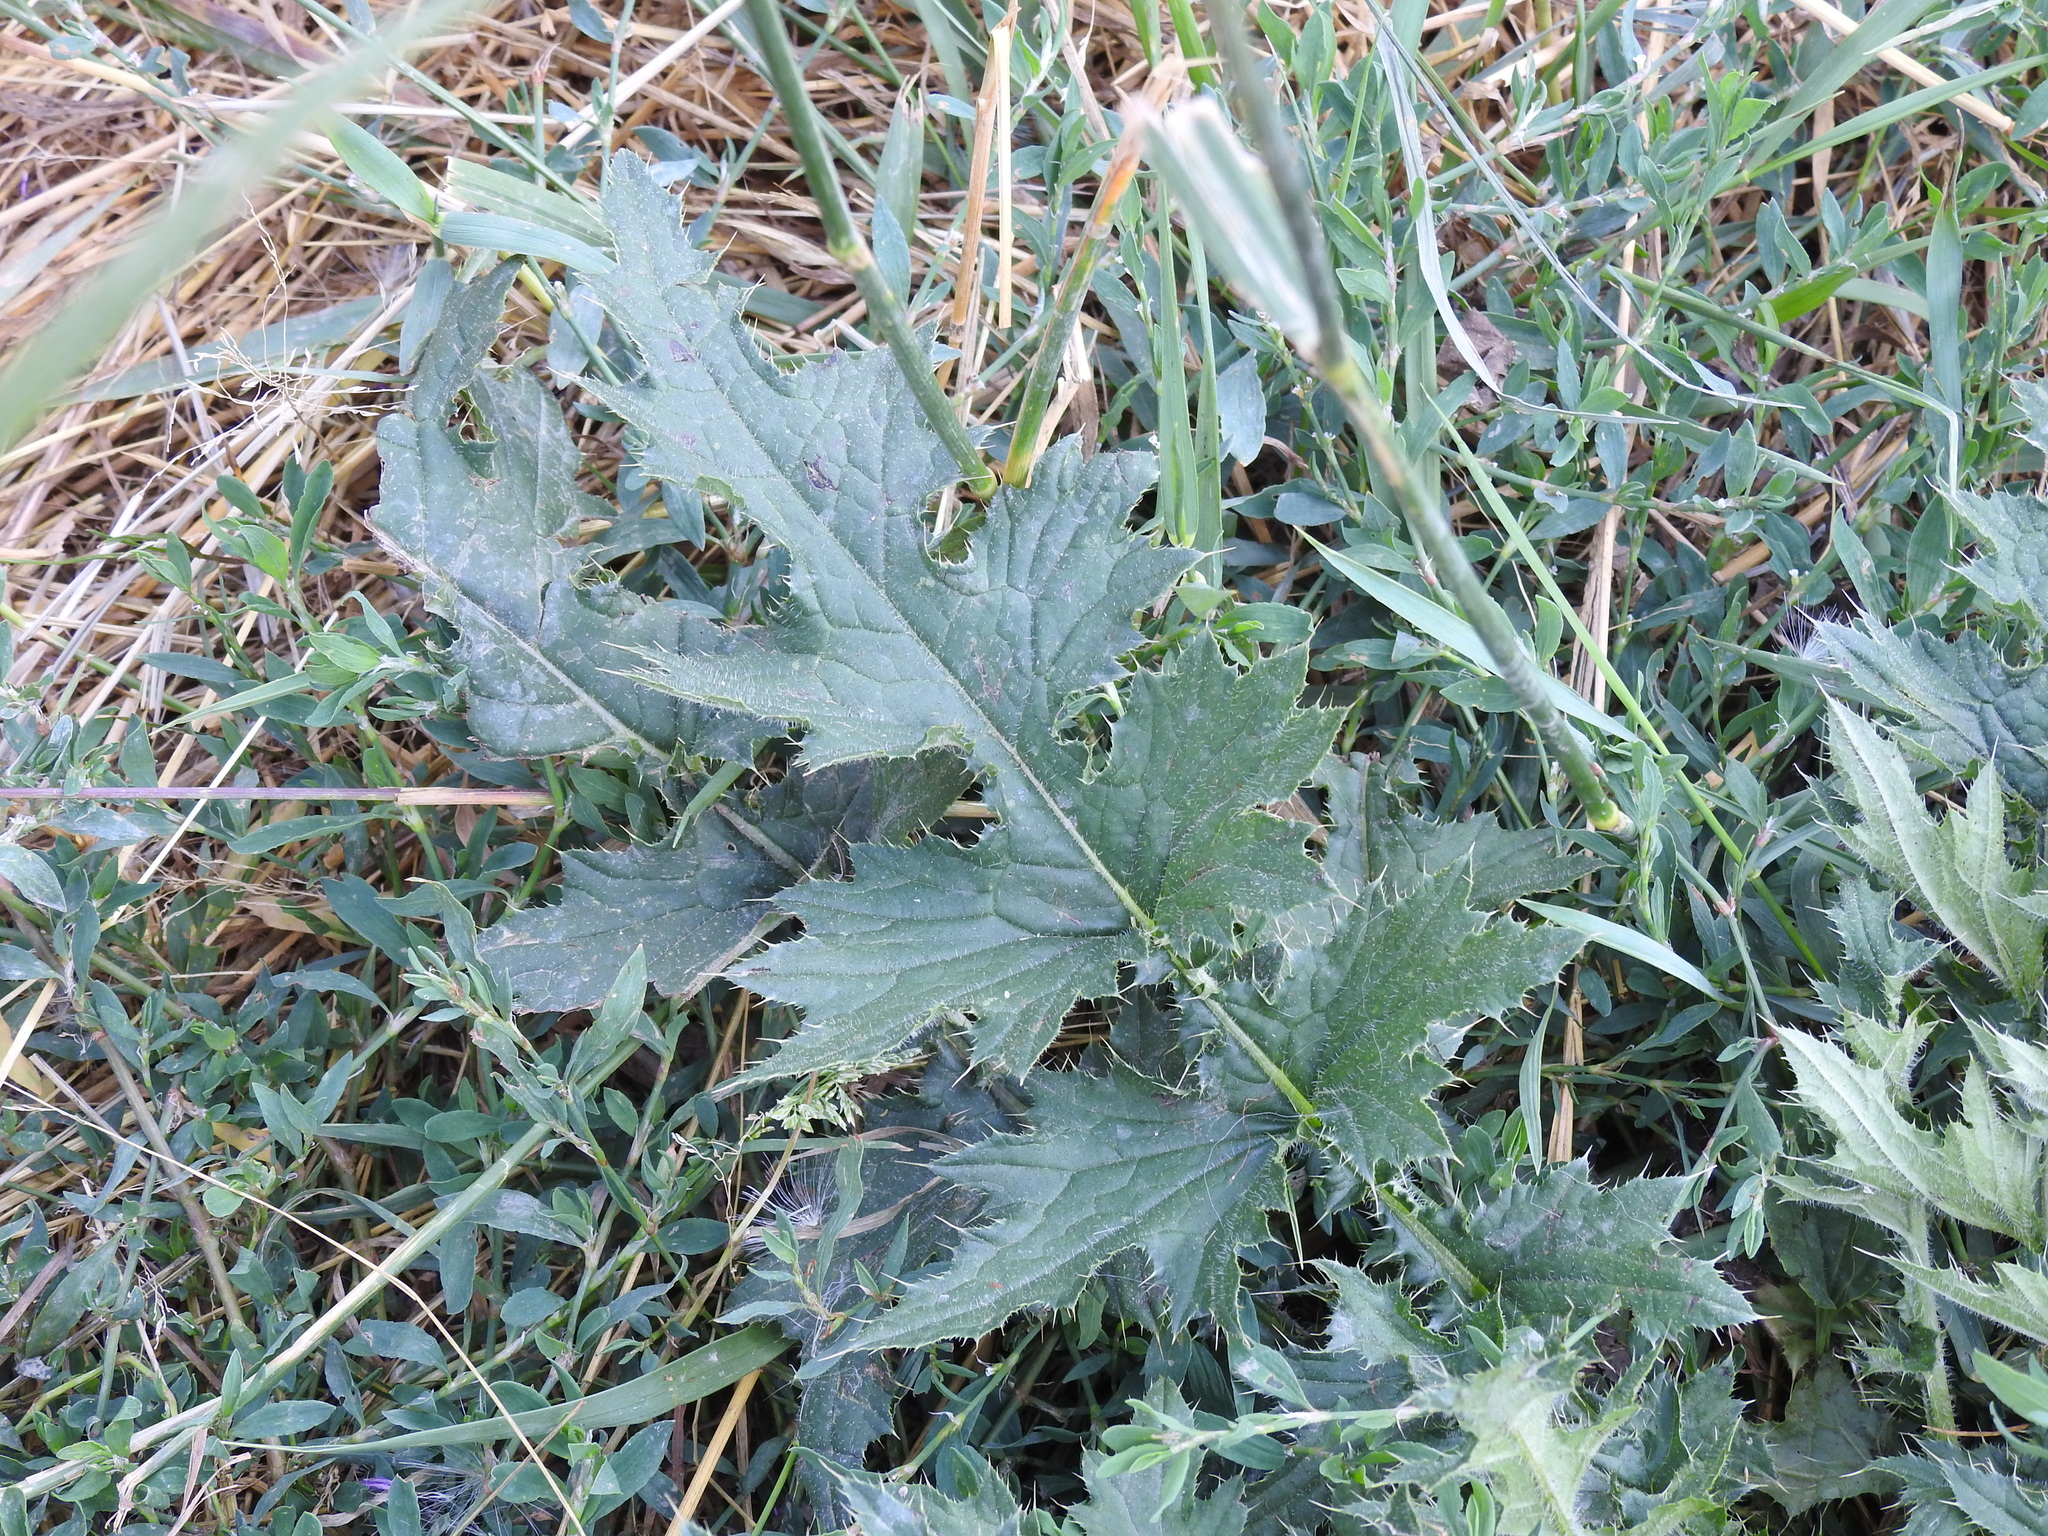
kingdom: Plantae
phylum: Tracheophyta
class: Magnoliopsida
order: Asterales
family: Asteraceae
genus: Carduus
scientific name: Carduus crispus
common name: Welted thistle
